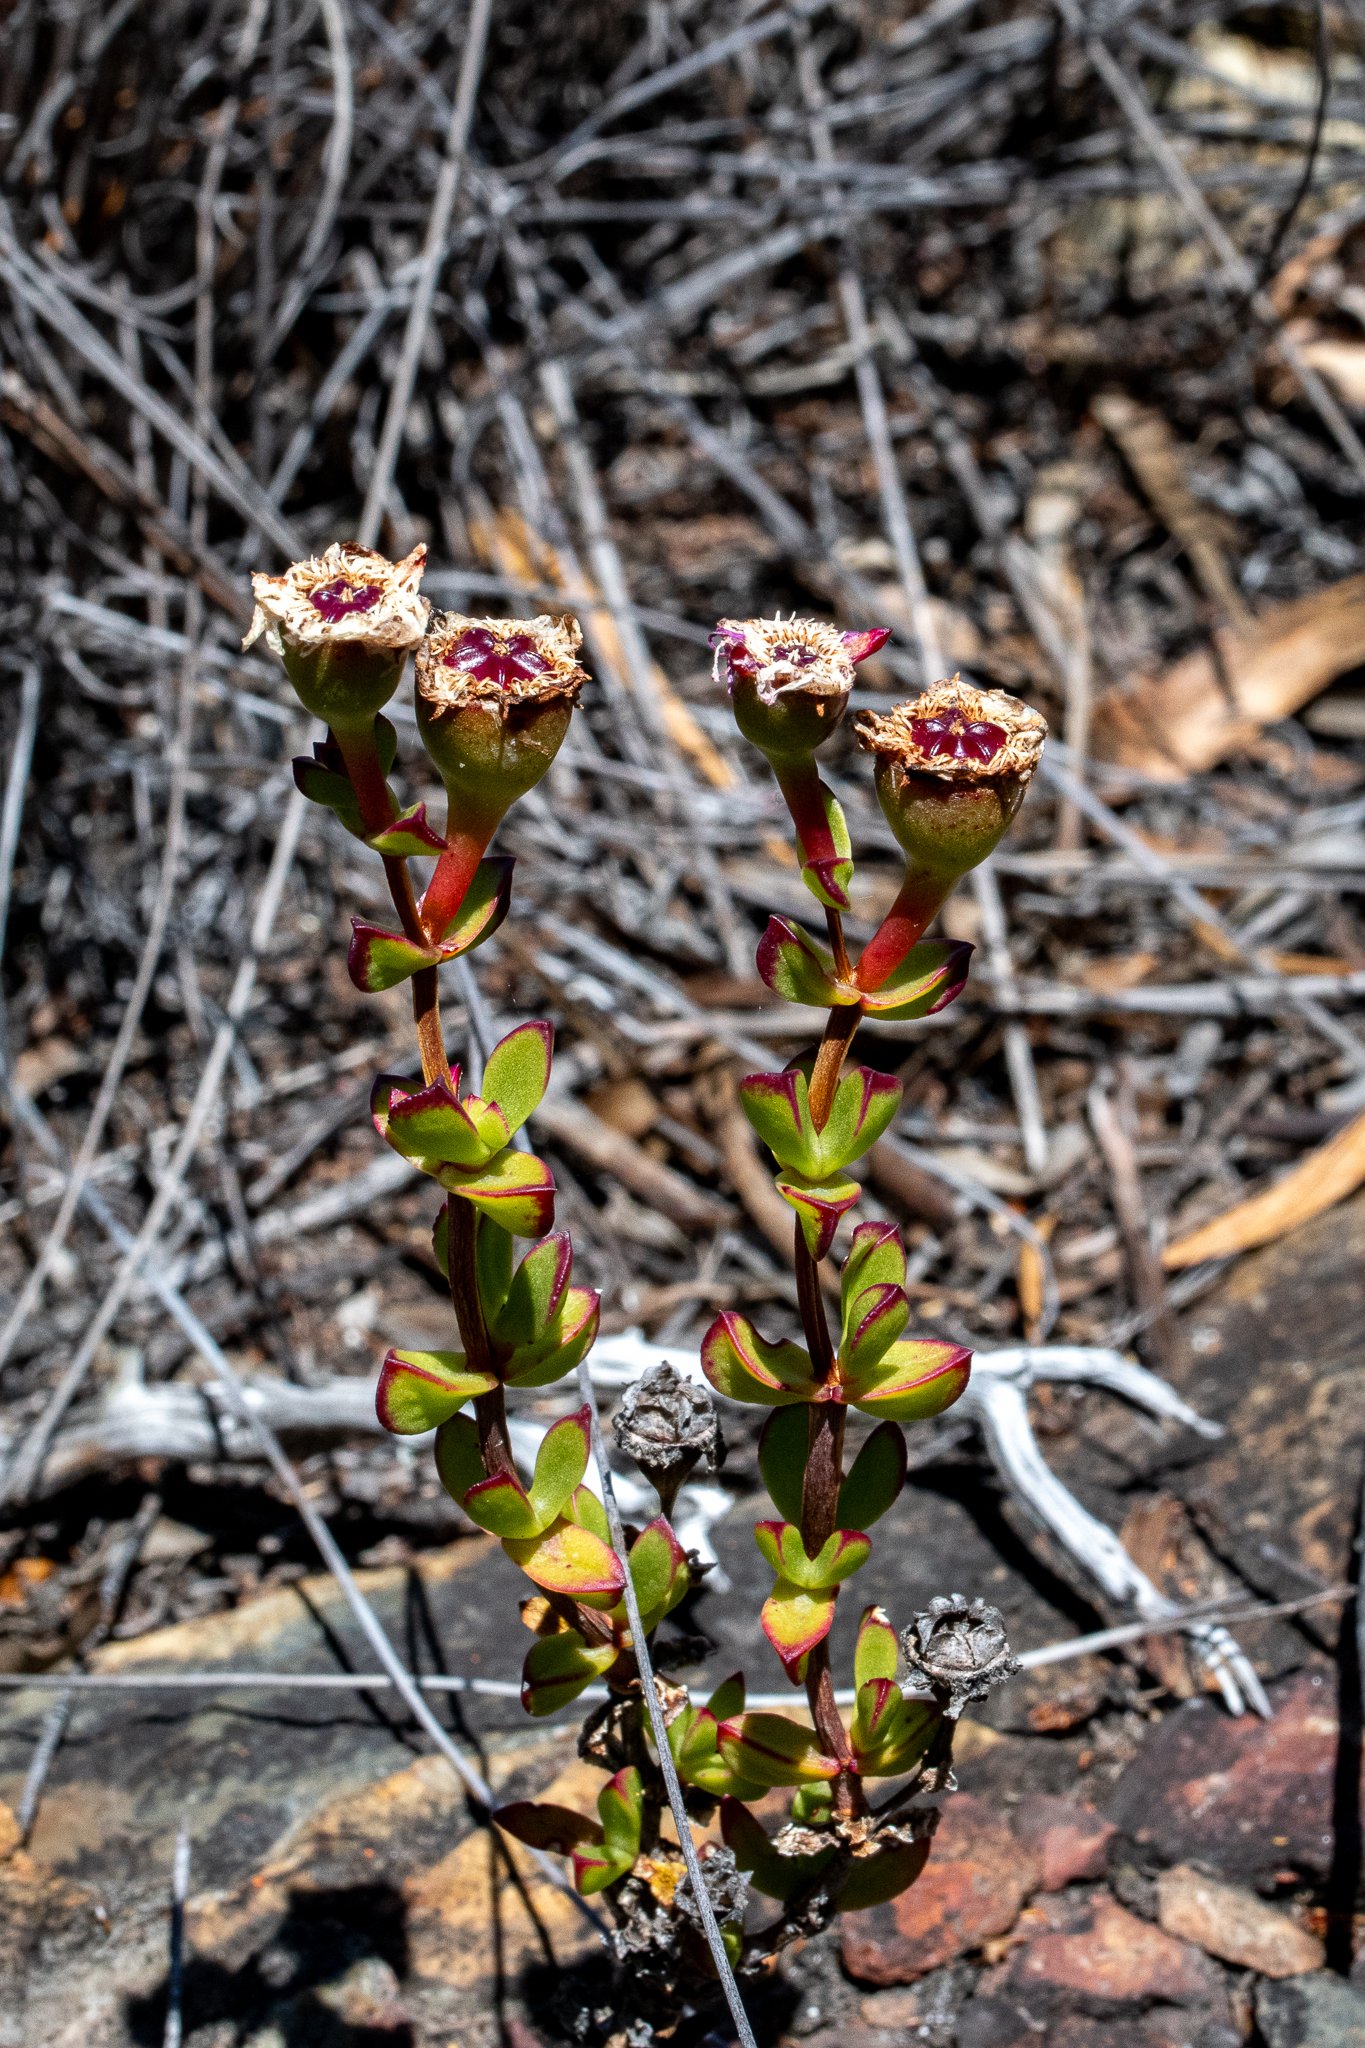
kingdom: Plantae
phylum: Tracheophyta
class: Magnoliopsida
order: Caryophyllales
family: Aizoaceae
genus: Erepsia
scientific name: Erepsia inclaudens
